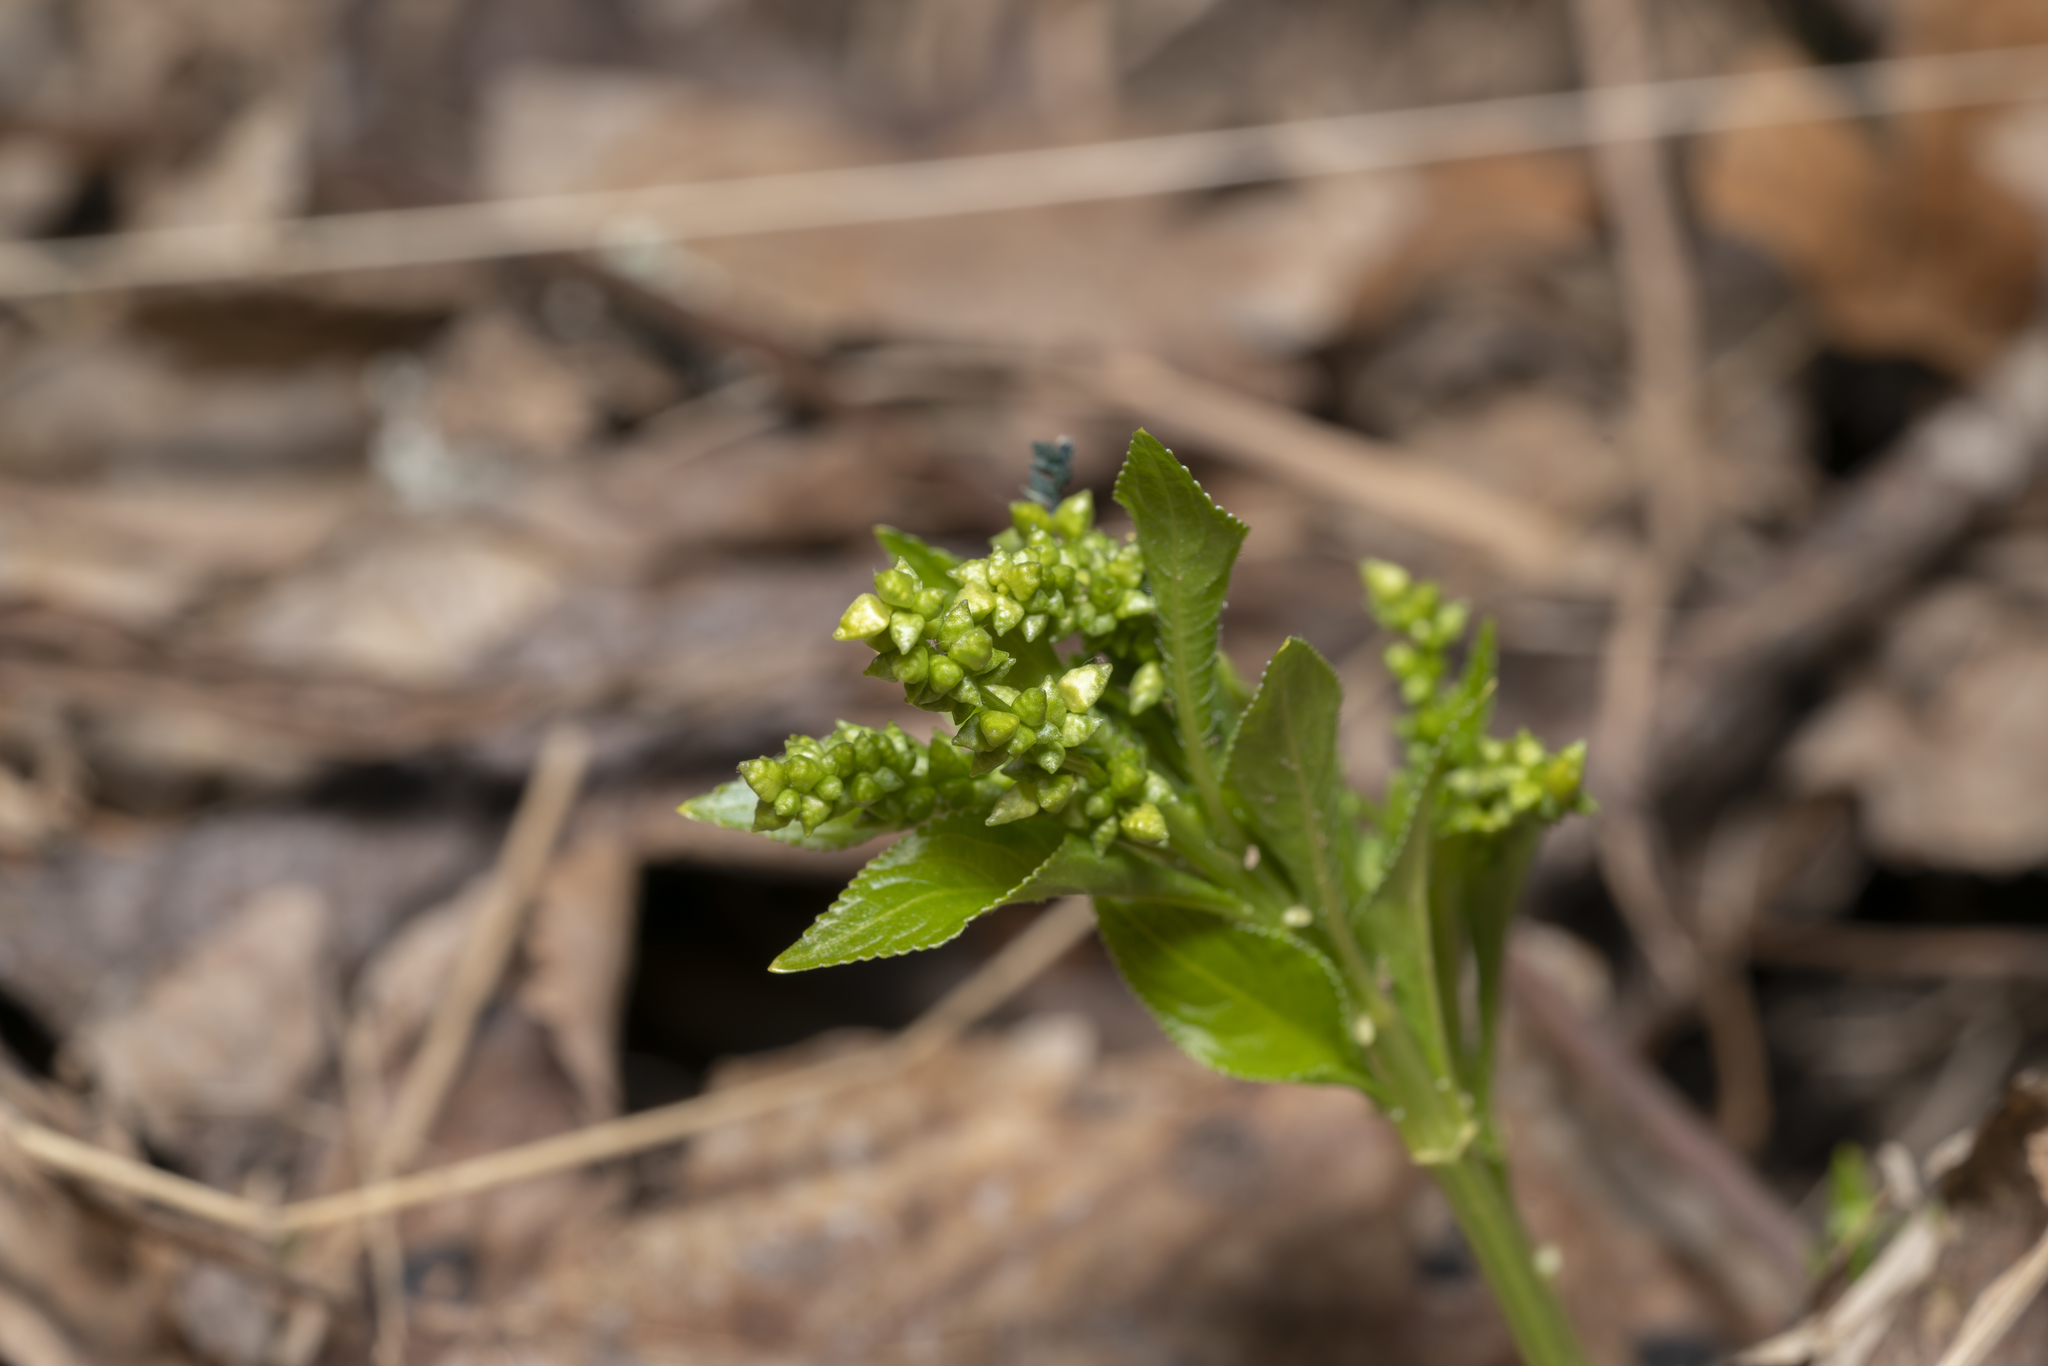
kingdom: Plantae
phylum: Tracheophyta
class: Magnoliopsida
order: Malpighiales
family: Euphorbiaceae
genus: Mercurialis
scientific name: Mercurialis perennis
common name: Dog mercury
